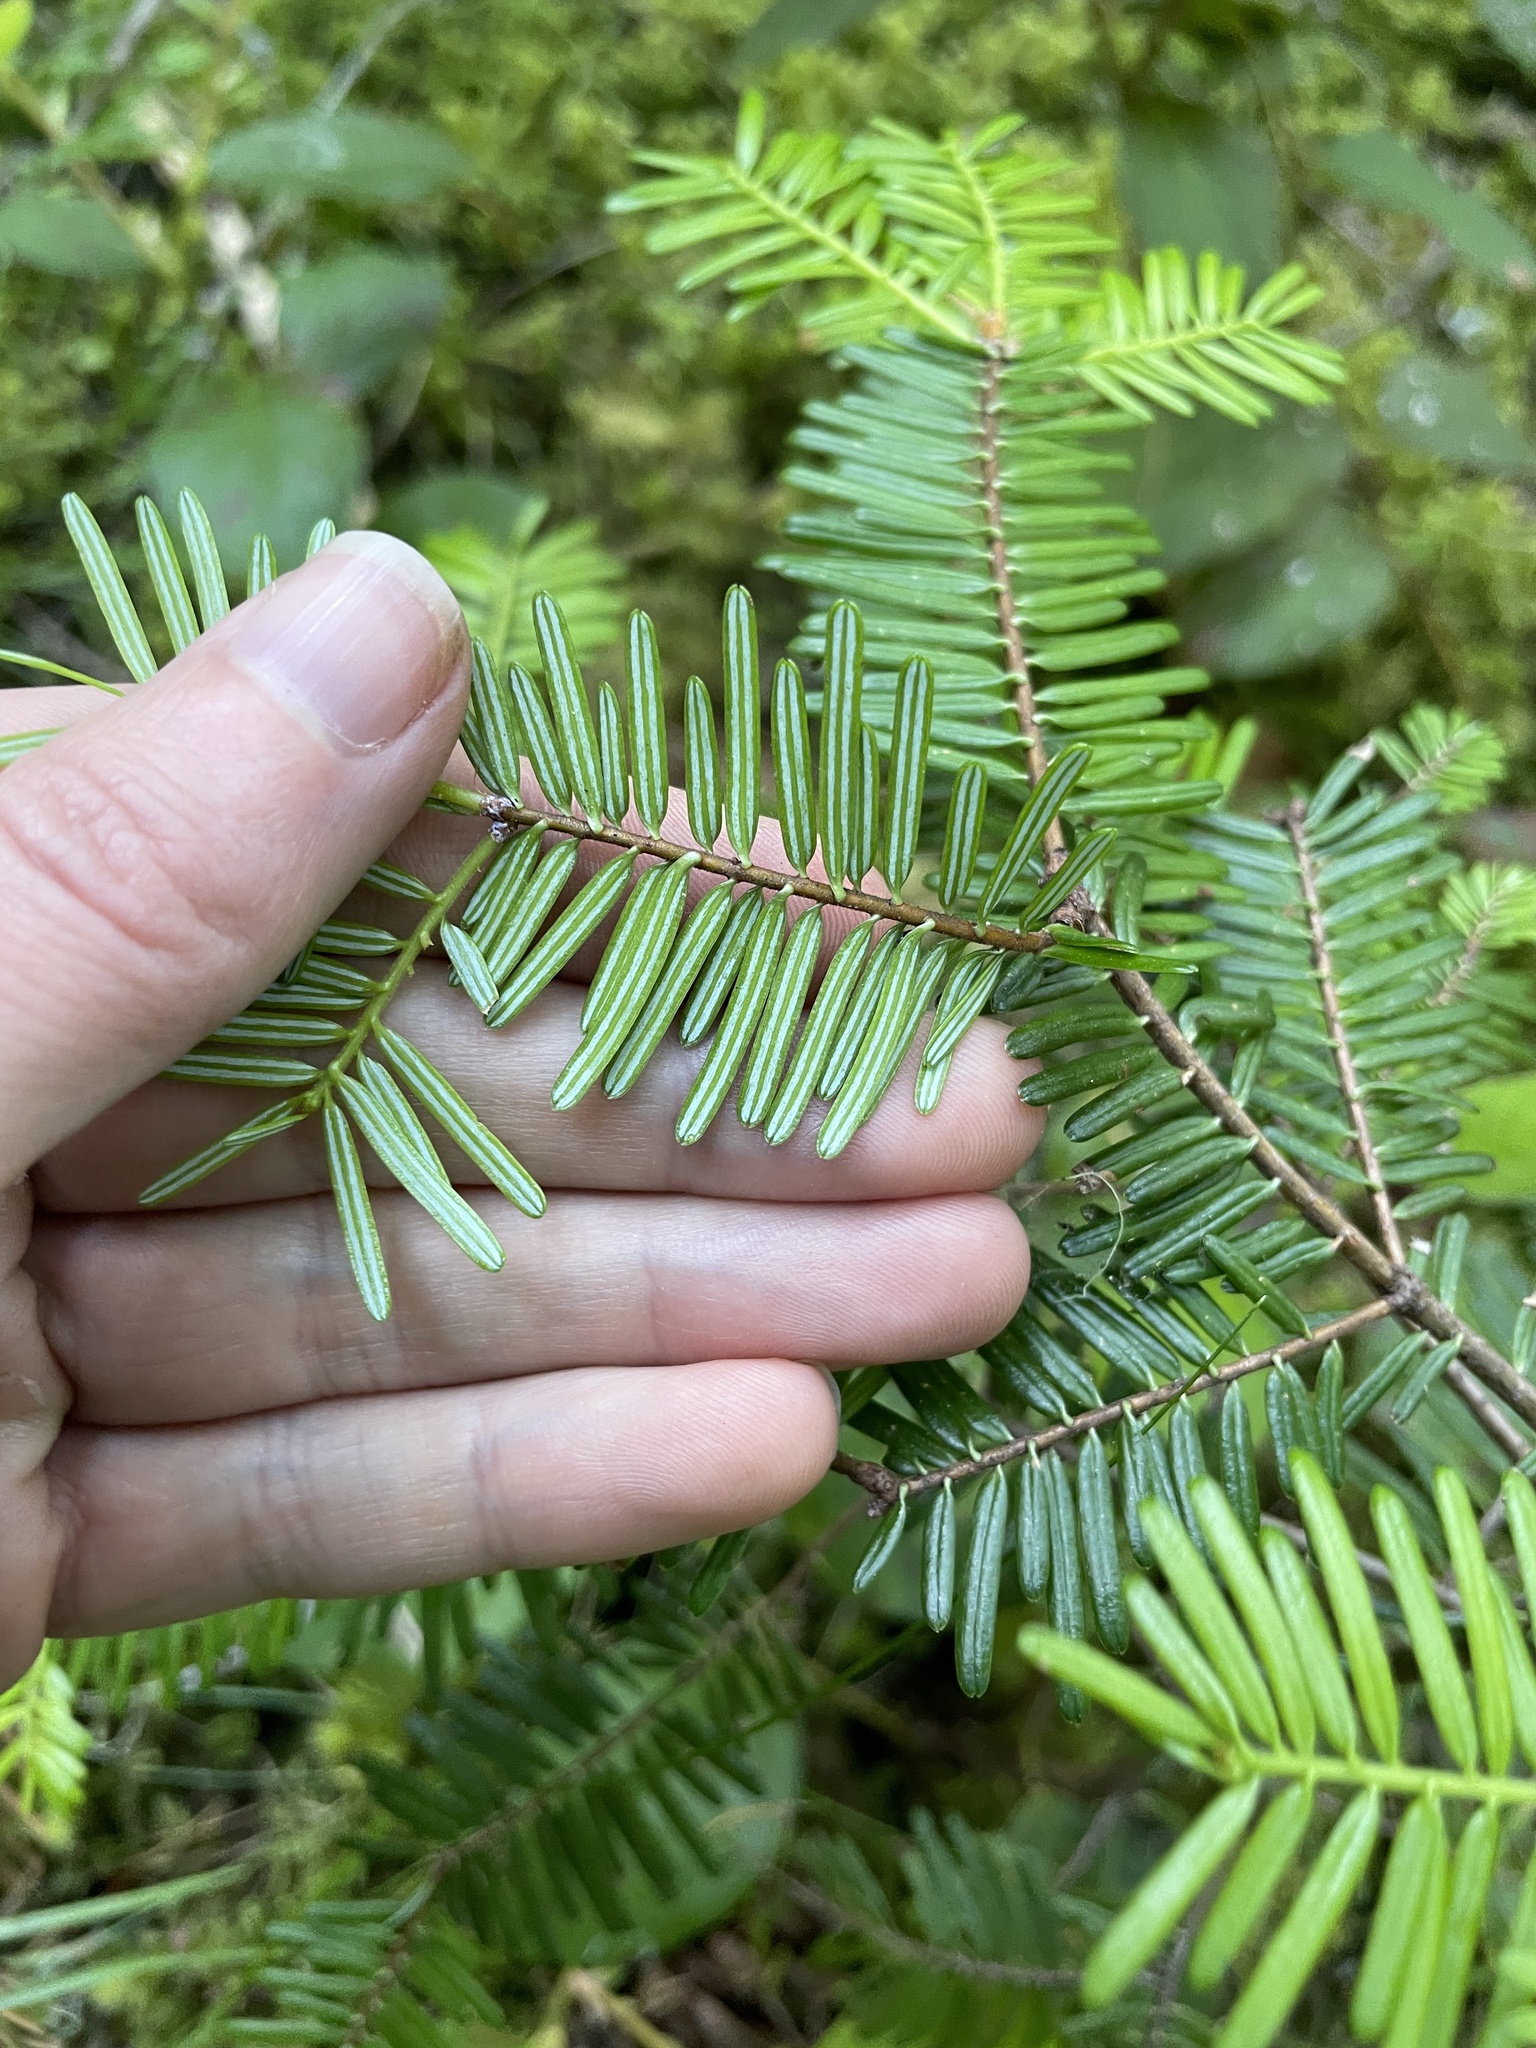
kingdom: Plantae
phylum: Tracheophyta
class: Pinopsida
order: Pinales
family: Pinaceae
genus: Abies
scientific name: Abies grandis
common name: Giant fir
